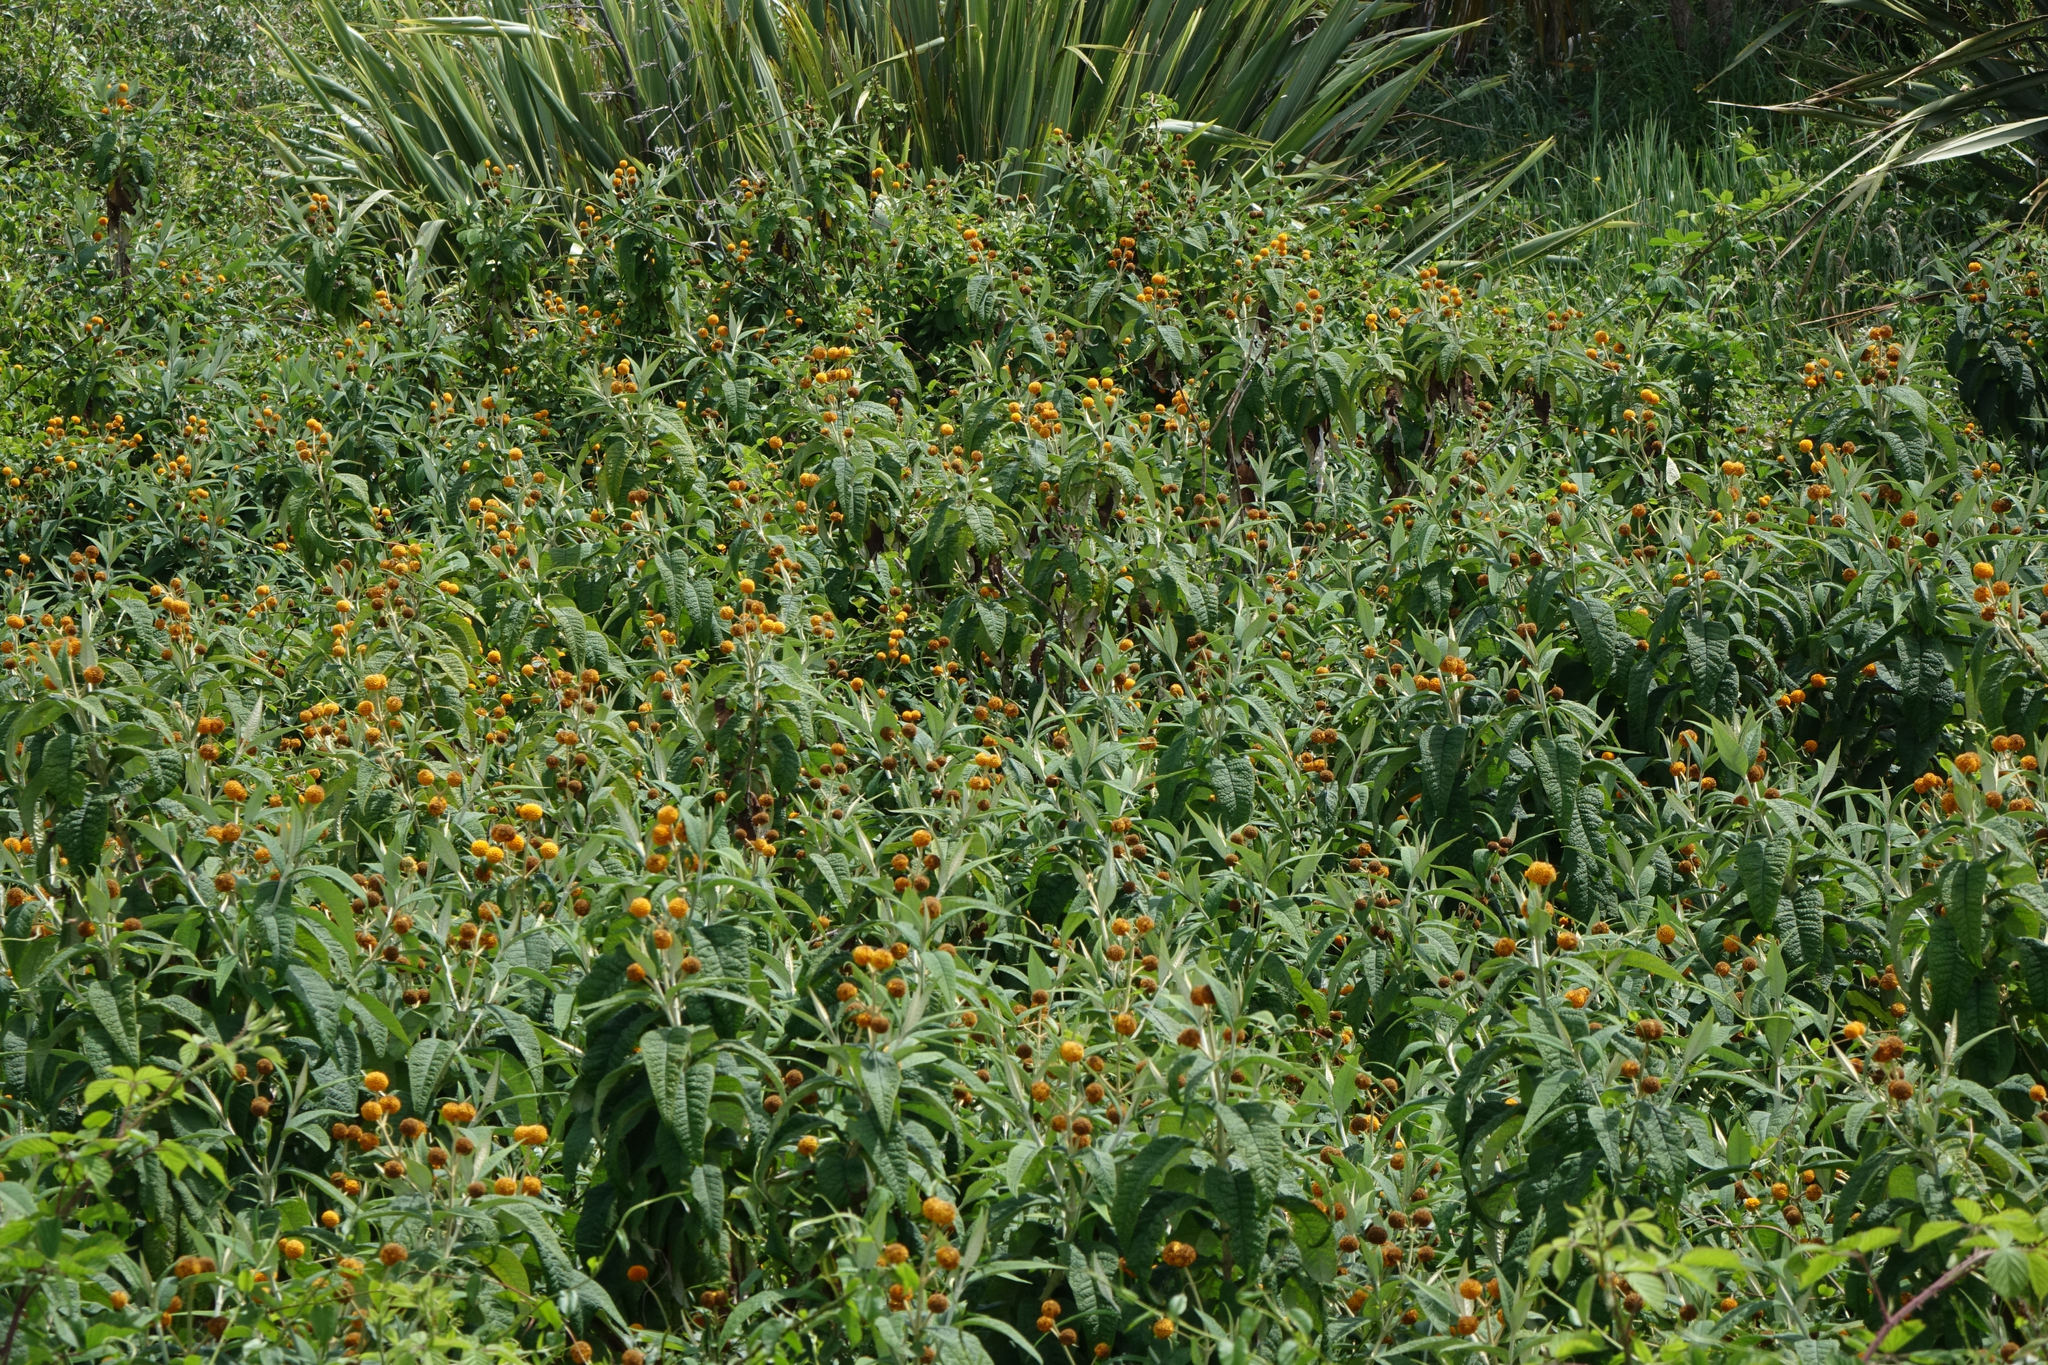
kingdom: Plantae
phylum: Tracheophyta
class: Magnoliopsida
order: Lamiales
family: Scrophulariaceae
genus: Buddleja
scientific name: Buddleja globosa
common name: Orange-ball-tree
